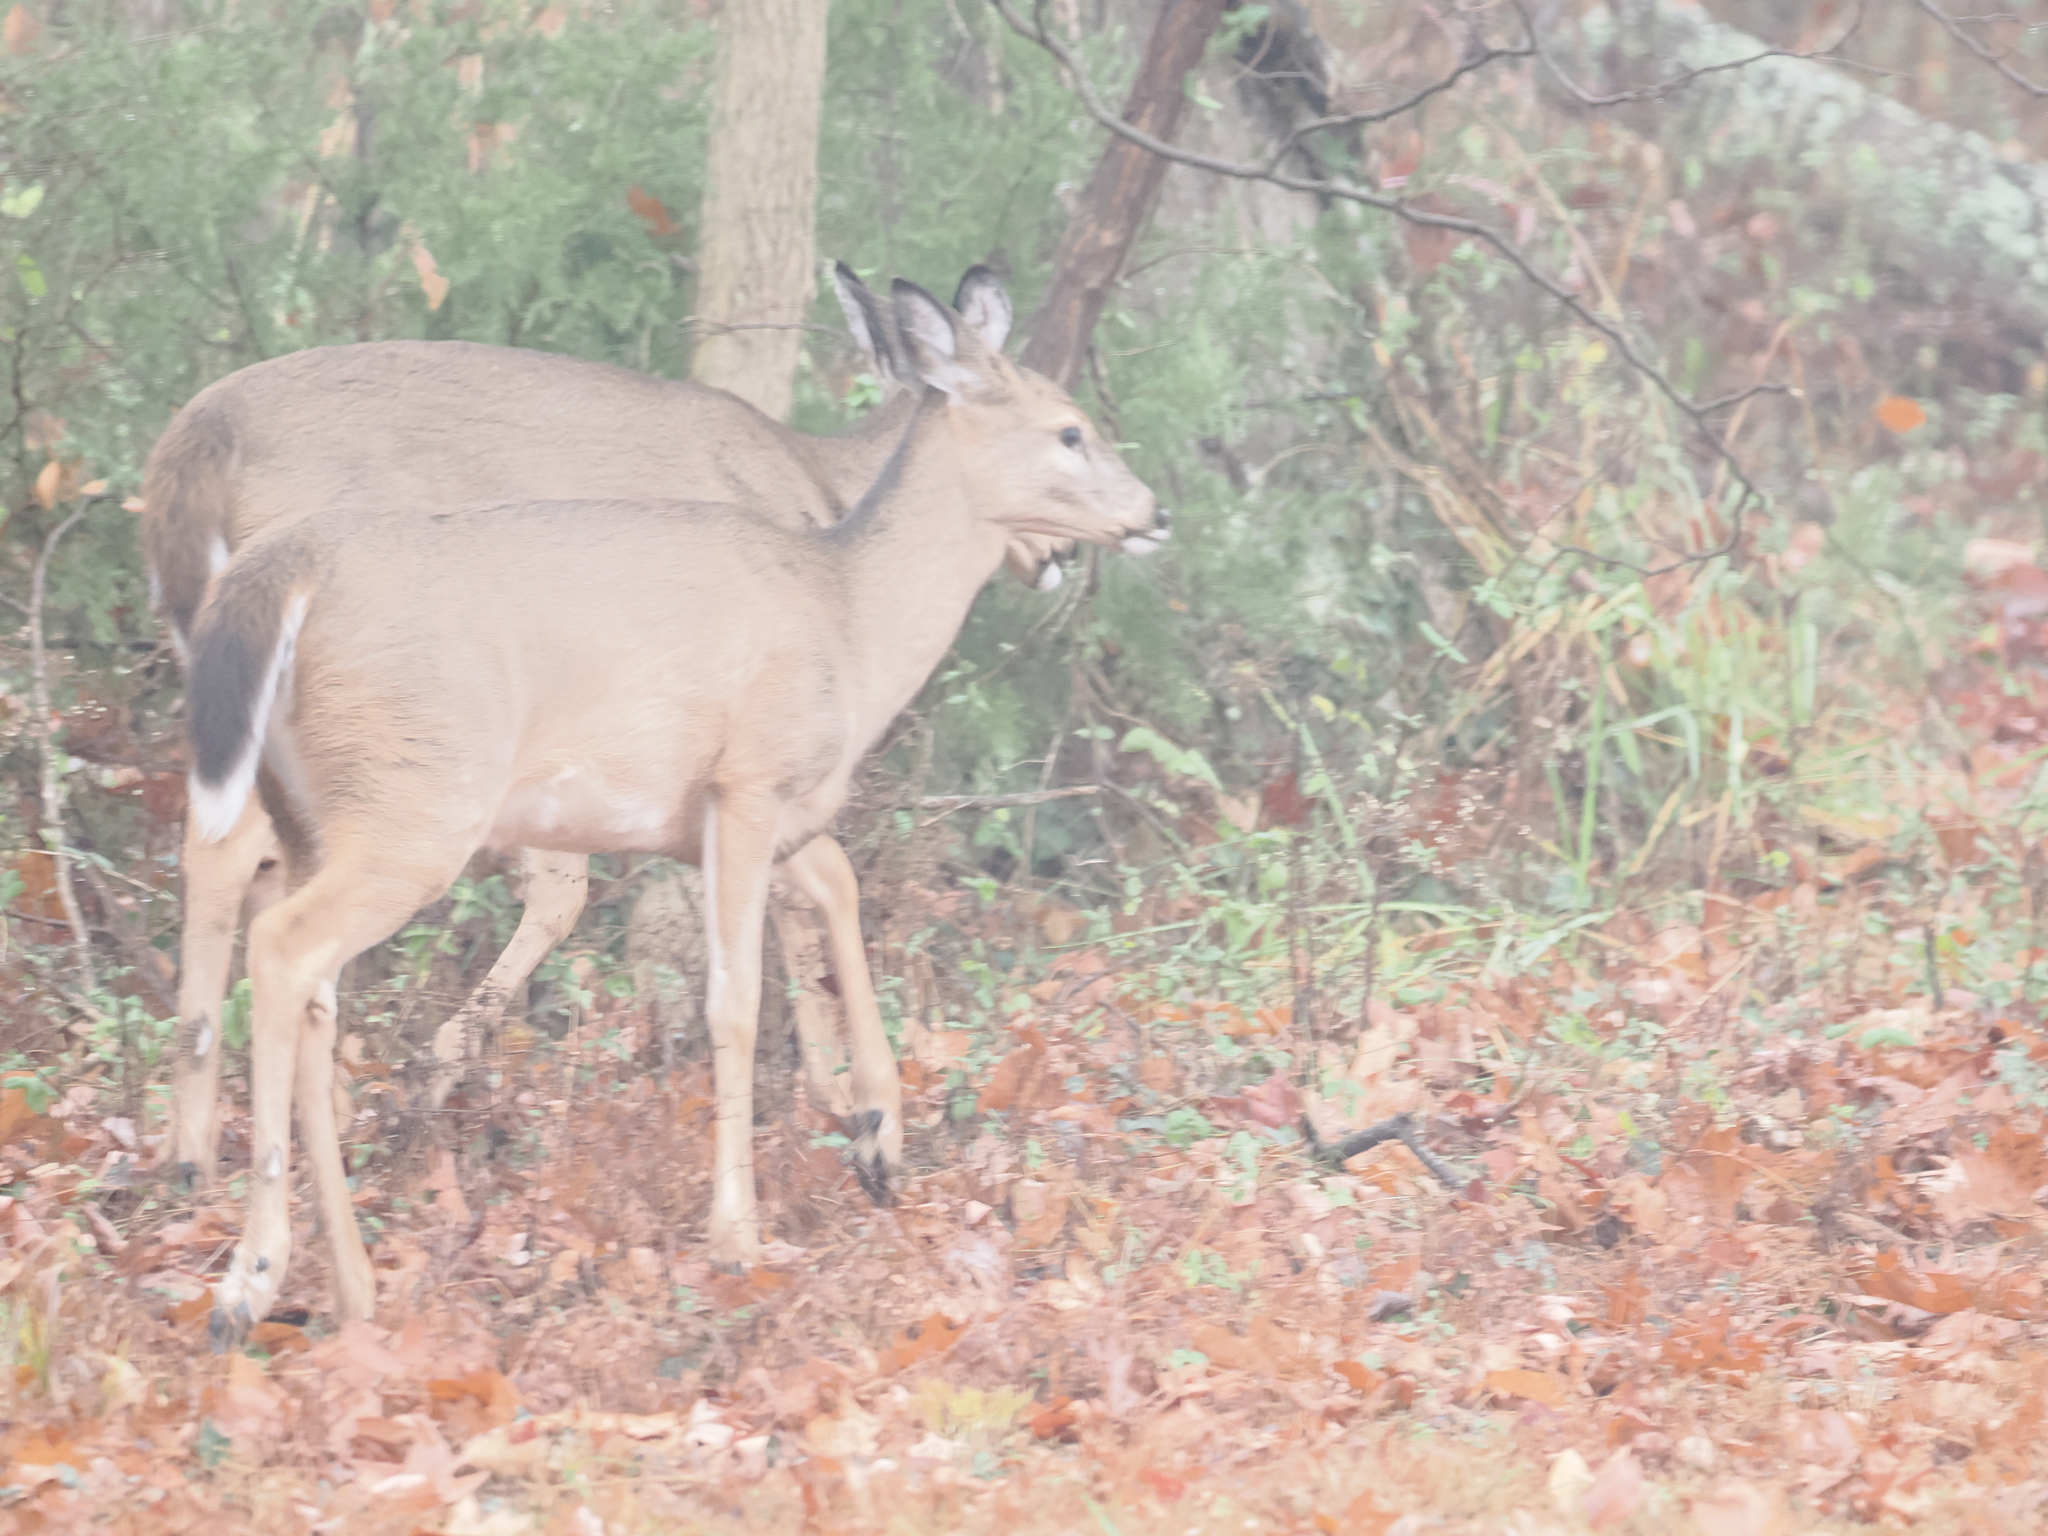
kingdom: Animalia
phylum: Chordata
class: Mammalia
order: Artiodactyla
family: Cervidae
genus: Odocoileus
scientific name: Odocoileus virginianus
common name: White-tailed deer
